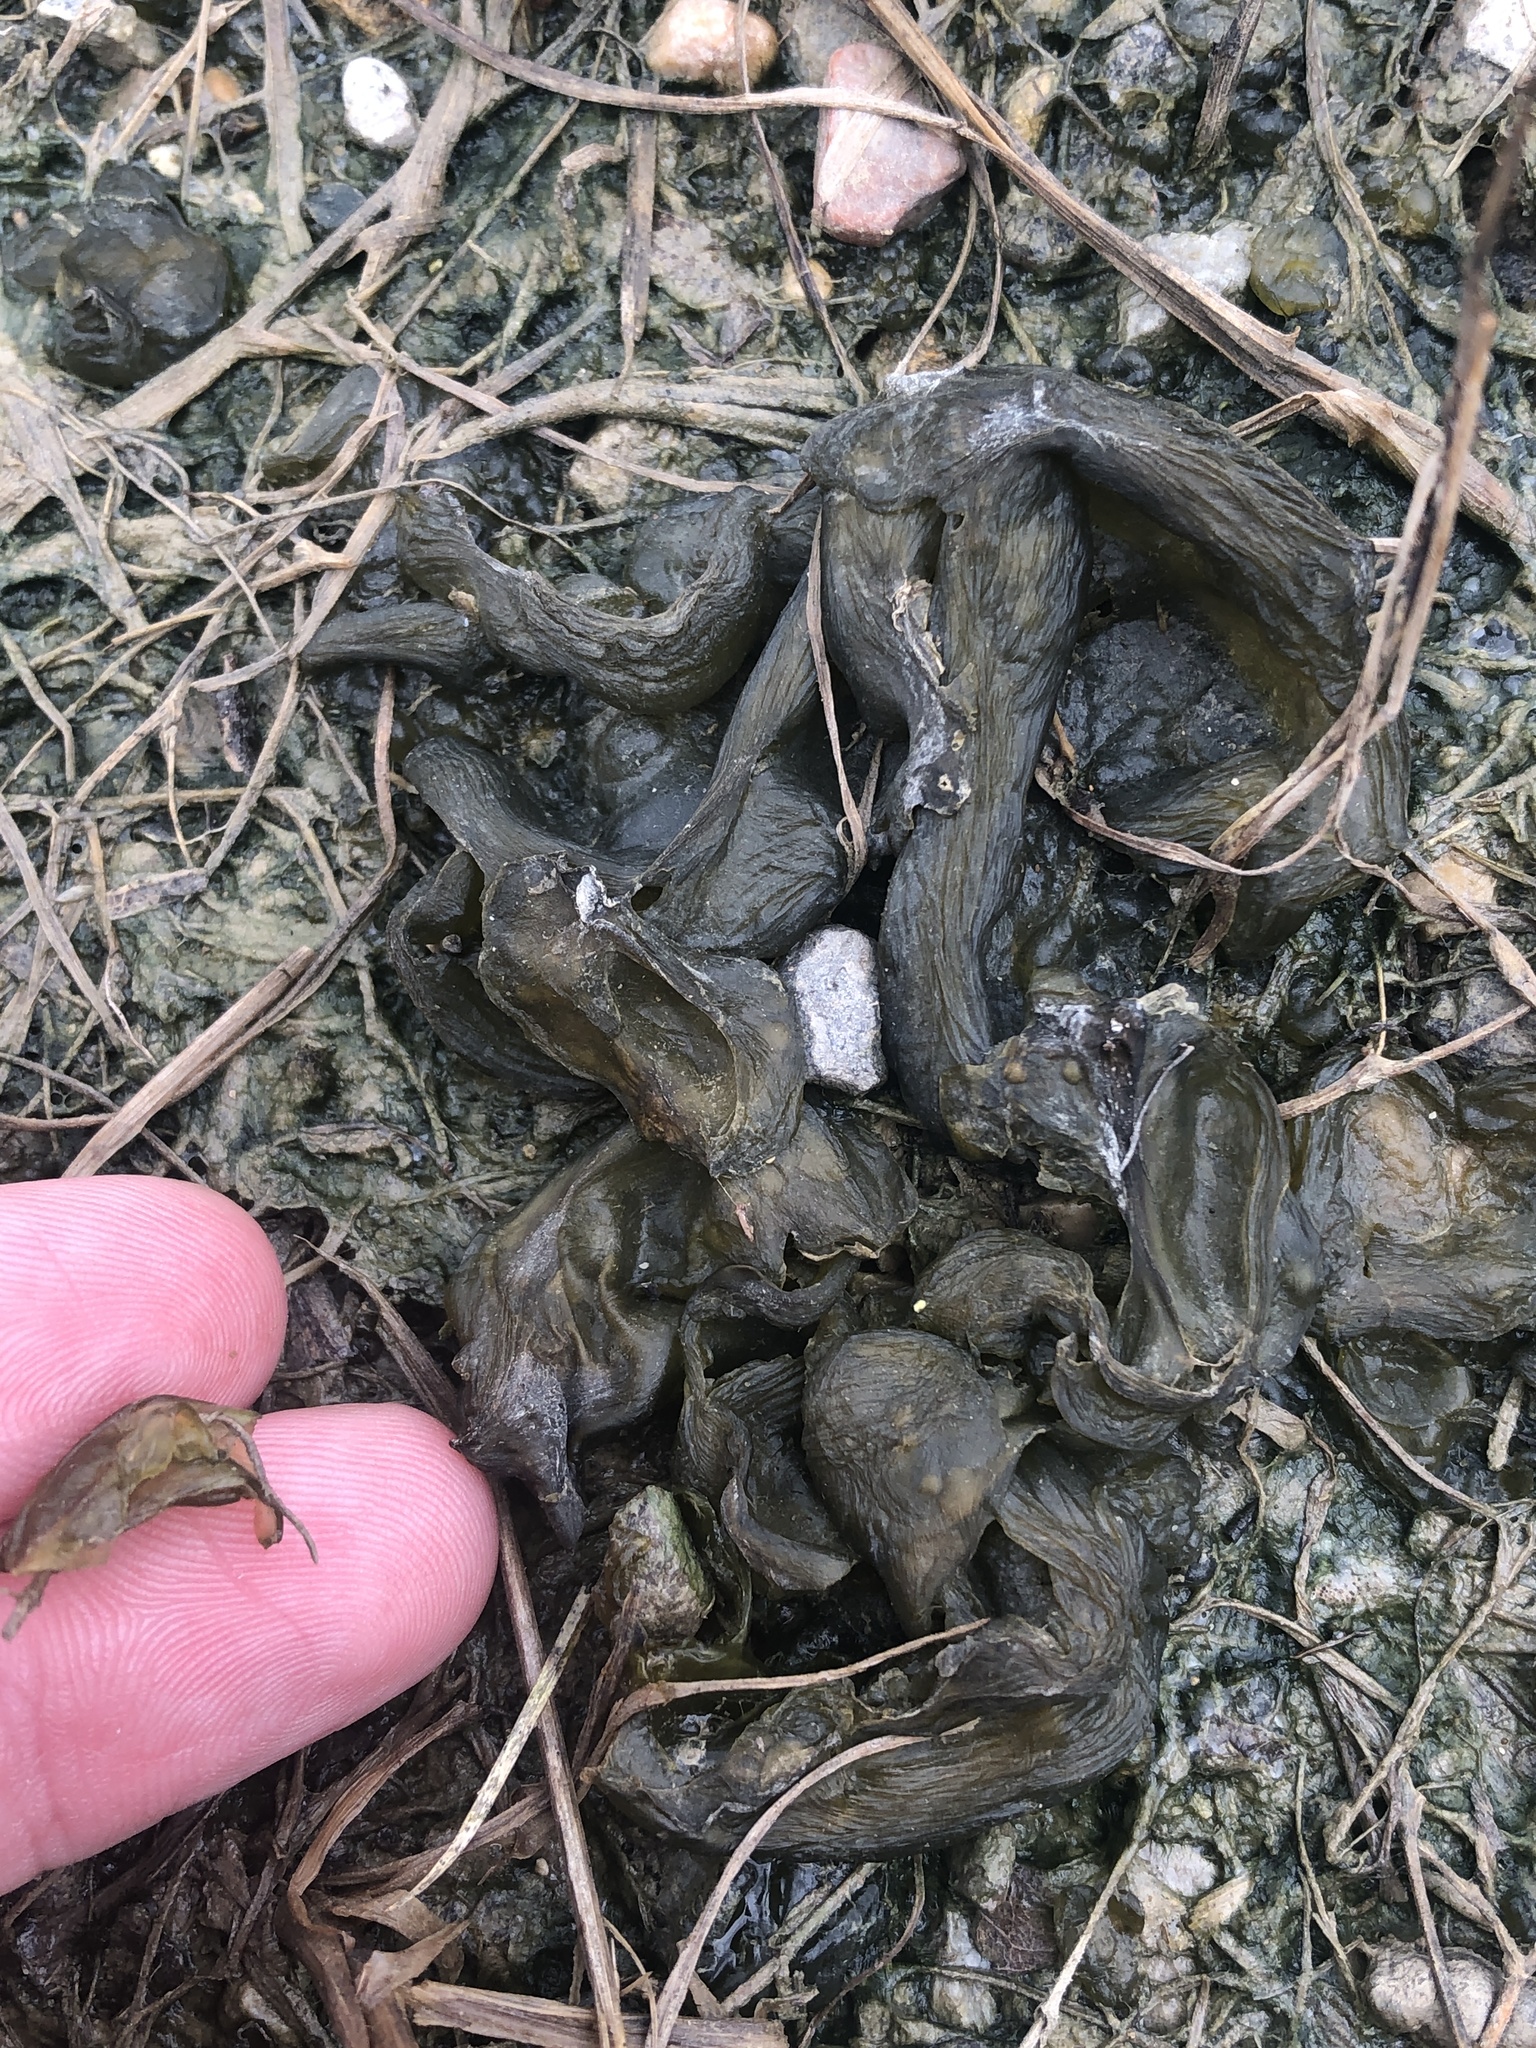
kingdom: Bacteria
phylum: Cyanobacteria
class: Cyanobacteriia
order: Cyanobacteriales
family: Nostocaceae
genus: Nostoc
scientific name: Nostoc commune
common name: Star jelly
